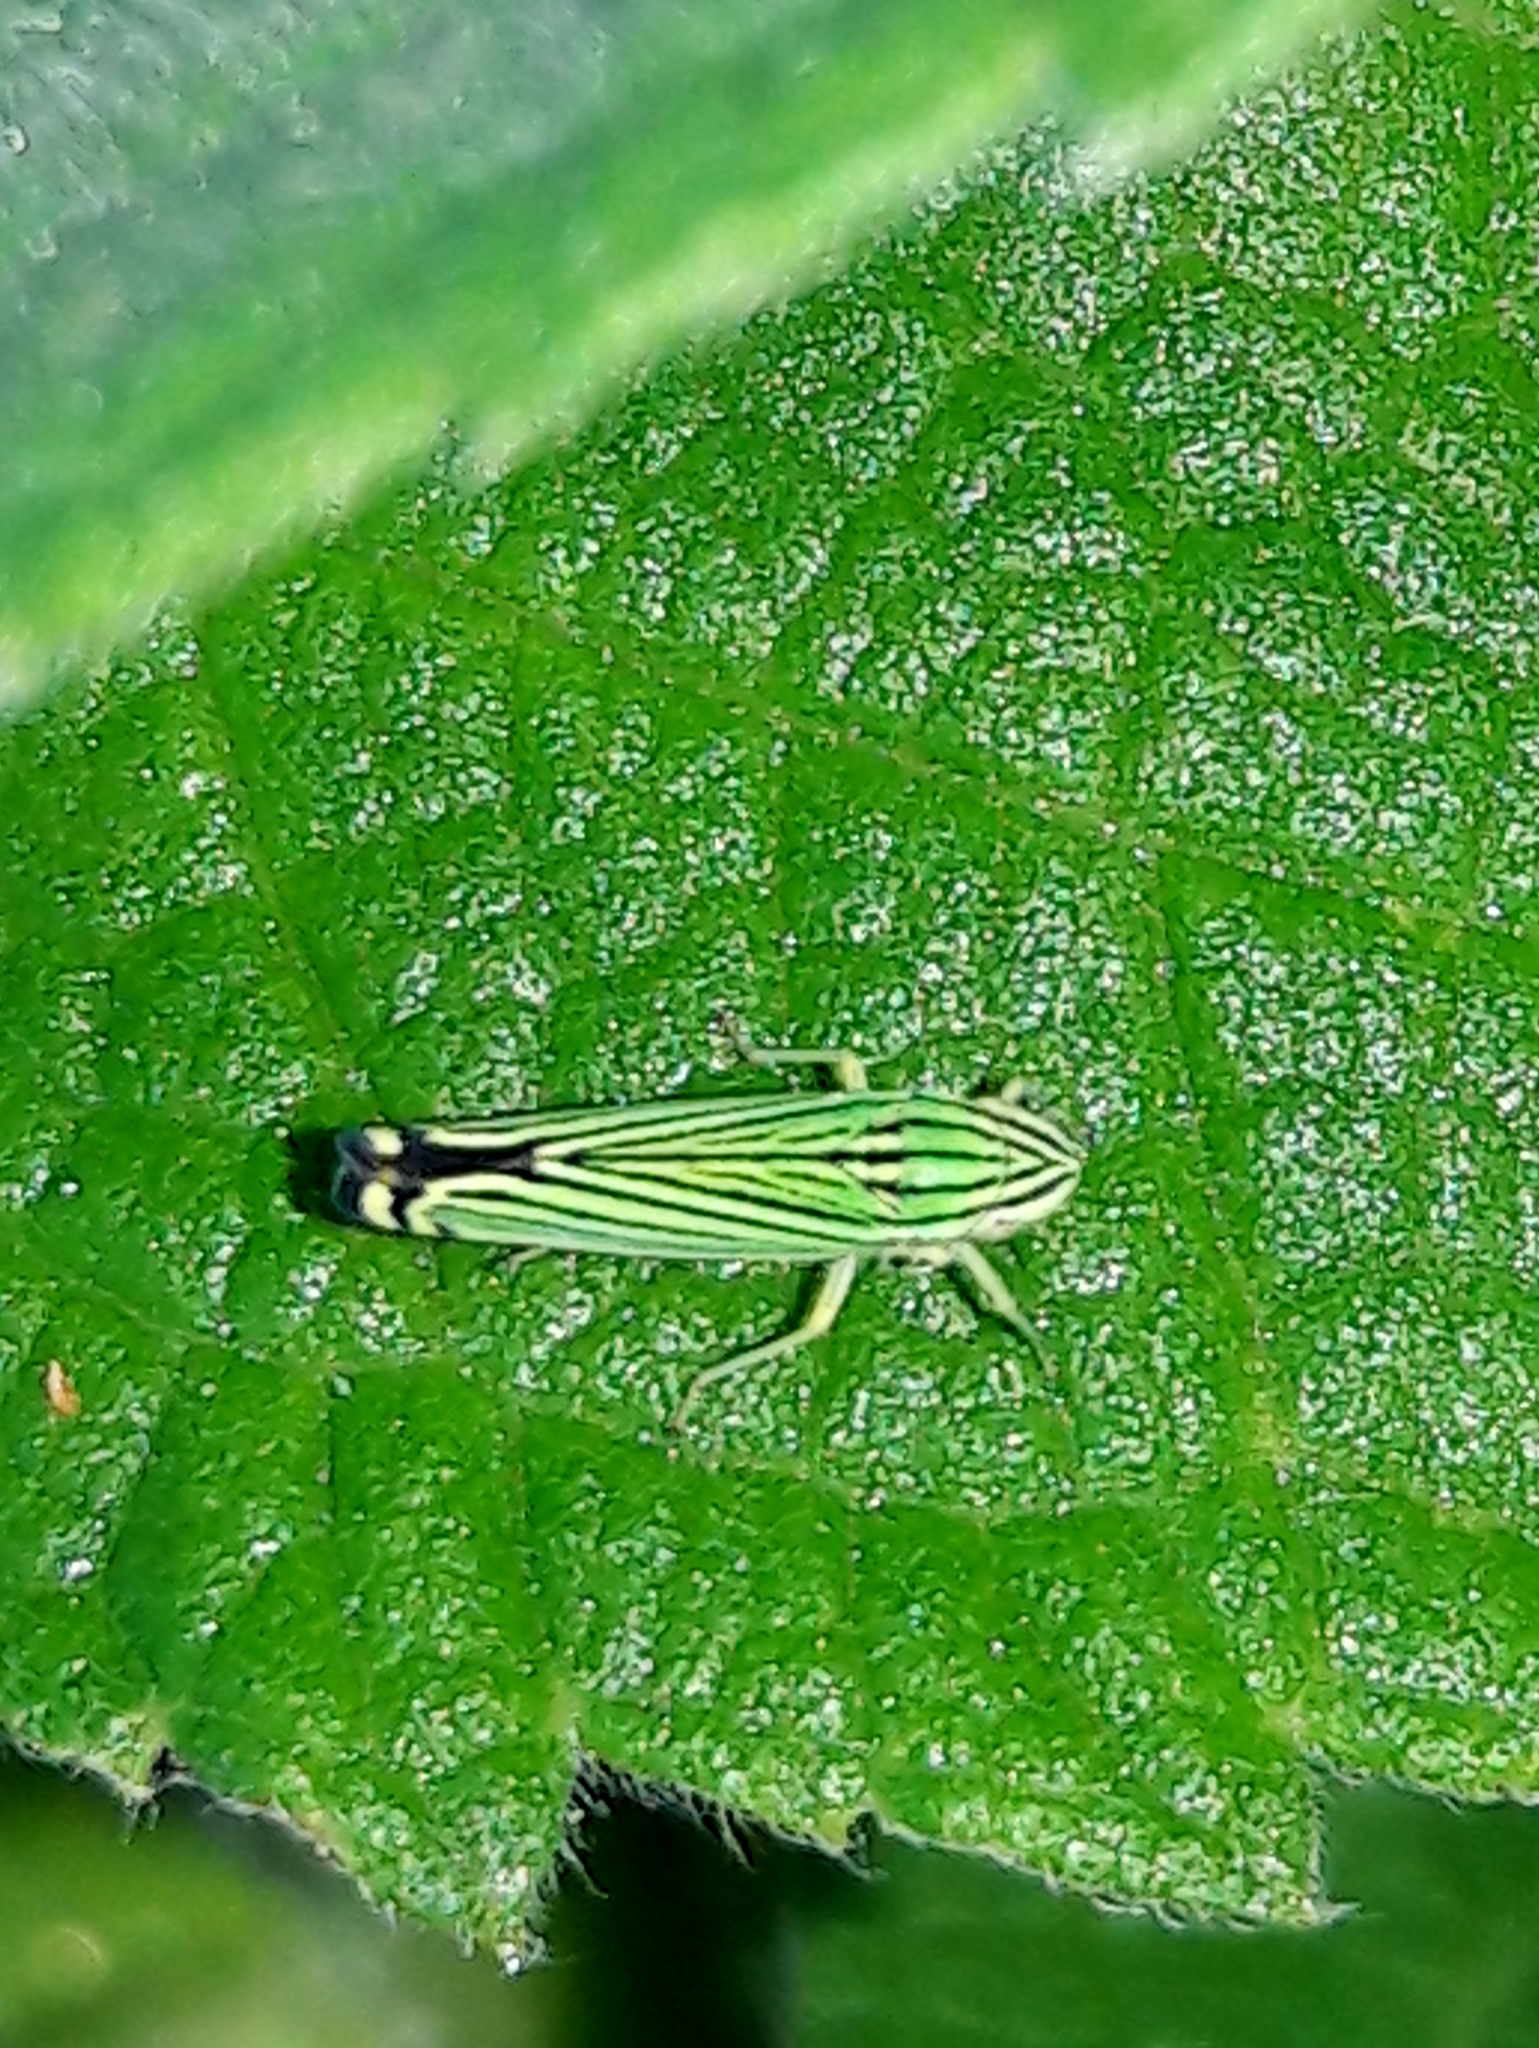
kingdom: Animalia
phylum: Arthropoda
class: Insecta
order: Hemiptera
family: Cicadellidae
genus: Sibovia
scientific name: Sibovia nielsoni
